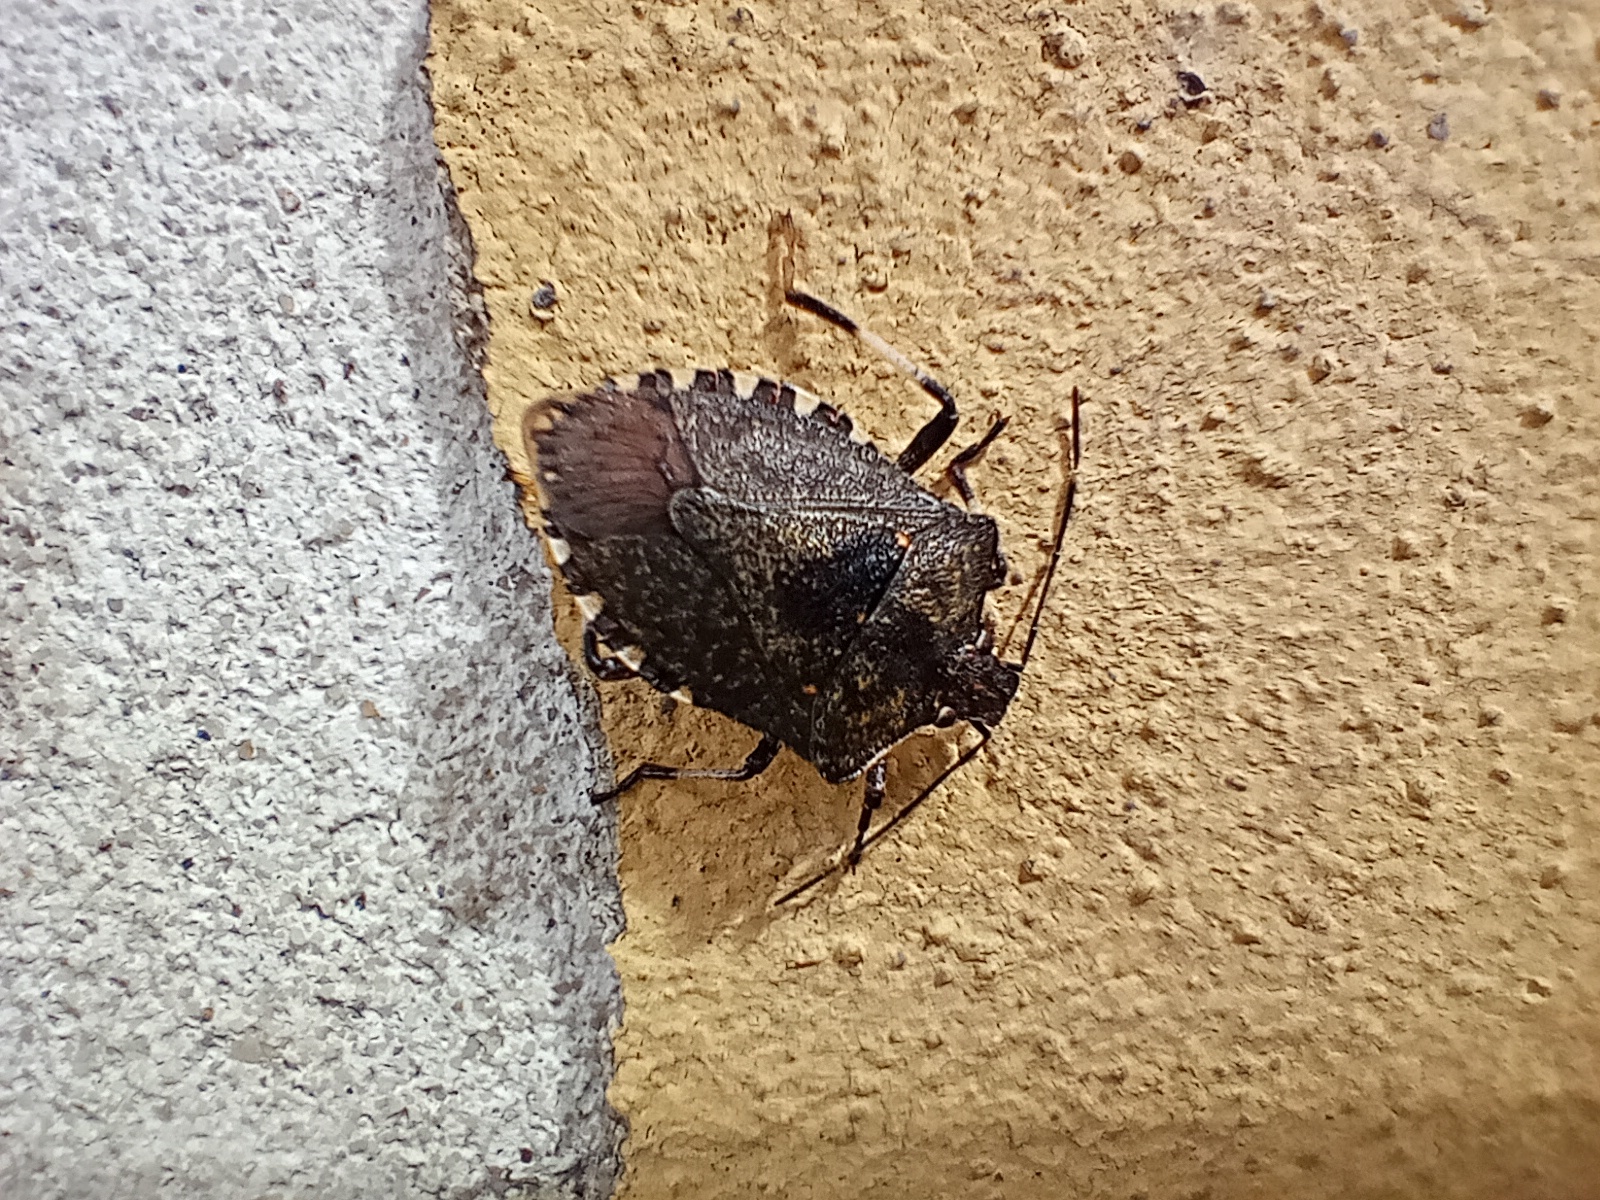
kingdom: Animalia
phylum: Arthropoda
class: Insecta
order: Hemiptera
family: Pentatomidae
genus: Halyomorpha
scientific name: Halyomorpha halys
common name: Brown marmorated stink bug
